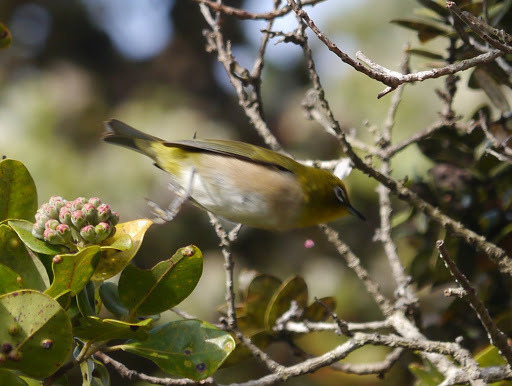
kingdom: Animalia
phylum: Chordata
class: Aves
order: Passeriformes
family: Zosteropidae
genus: Zosterops
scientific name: Zosterops japonicus
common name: Japanese white-eye
